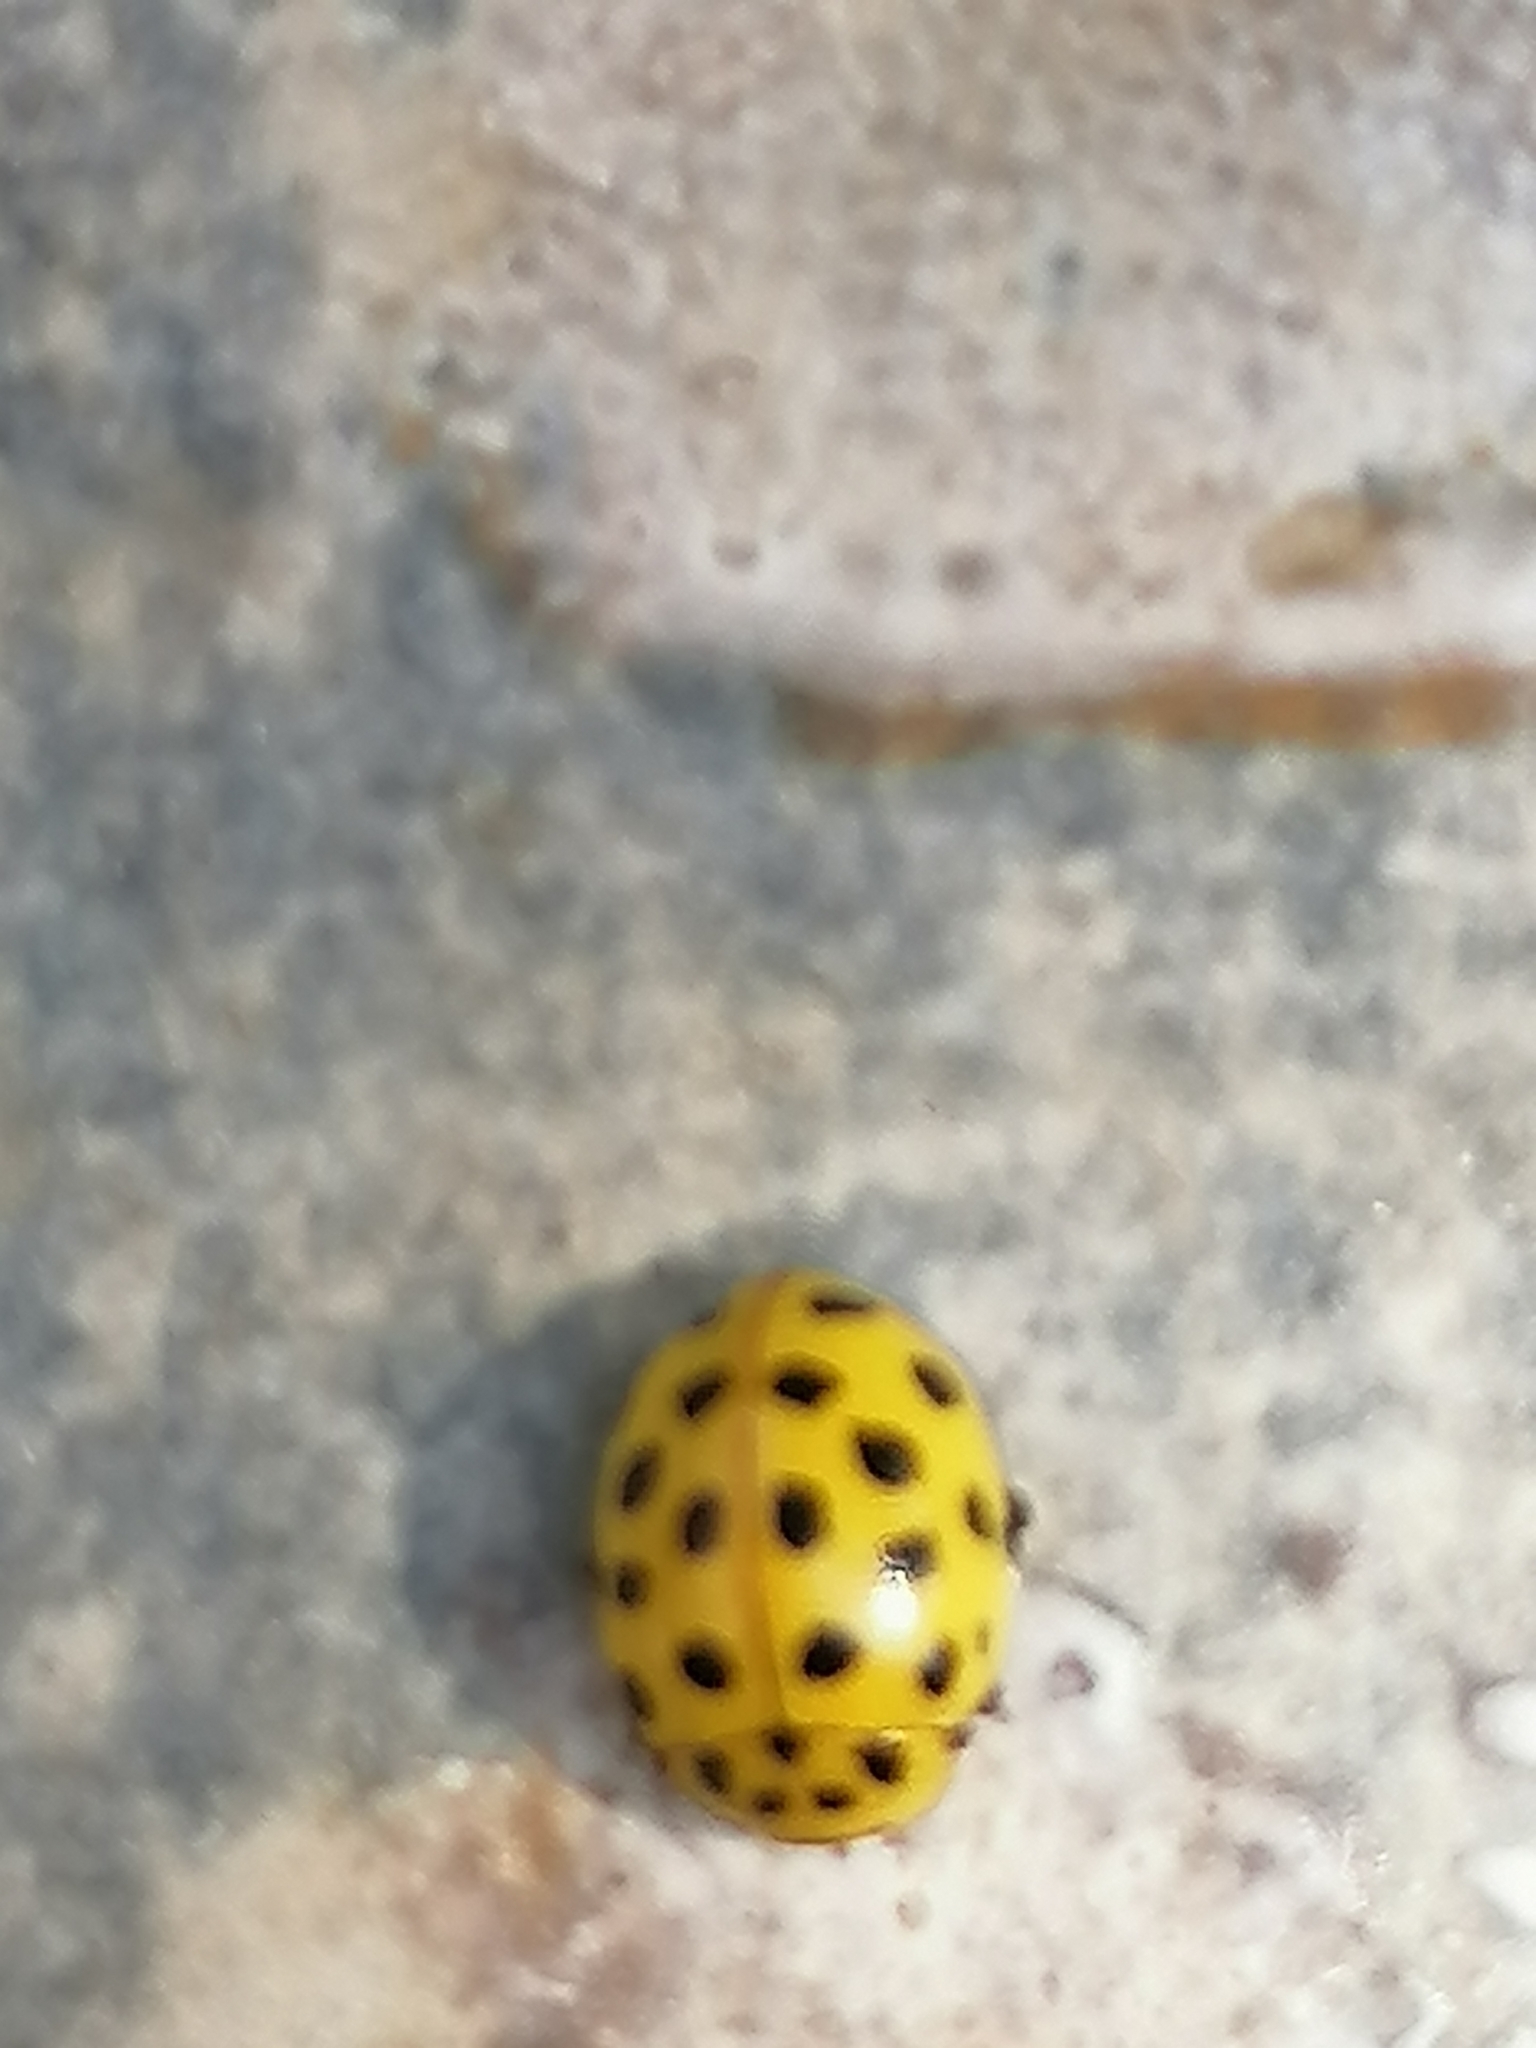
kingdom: Animalia
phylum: Arthropoda
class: Insecta
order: Coleoptera
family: Coccinellidae
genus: Psyllobora
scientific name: Psyllobora vigintiduopunctata
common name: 22-spot ladybird
